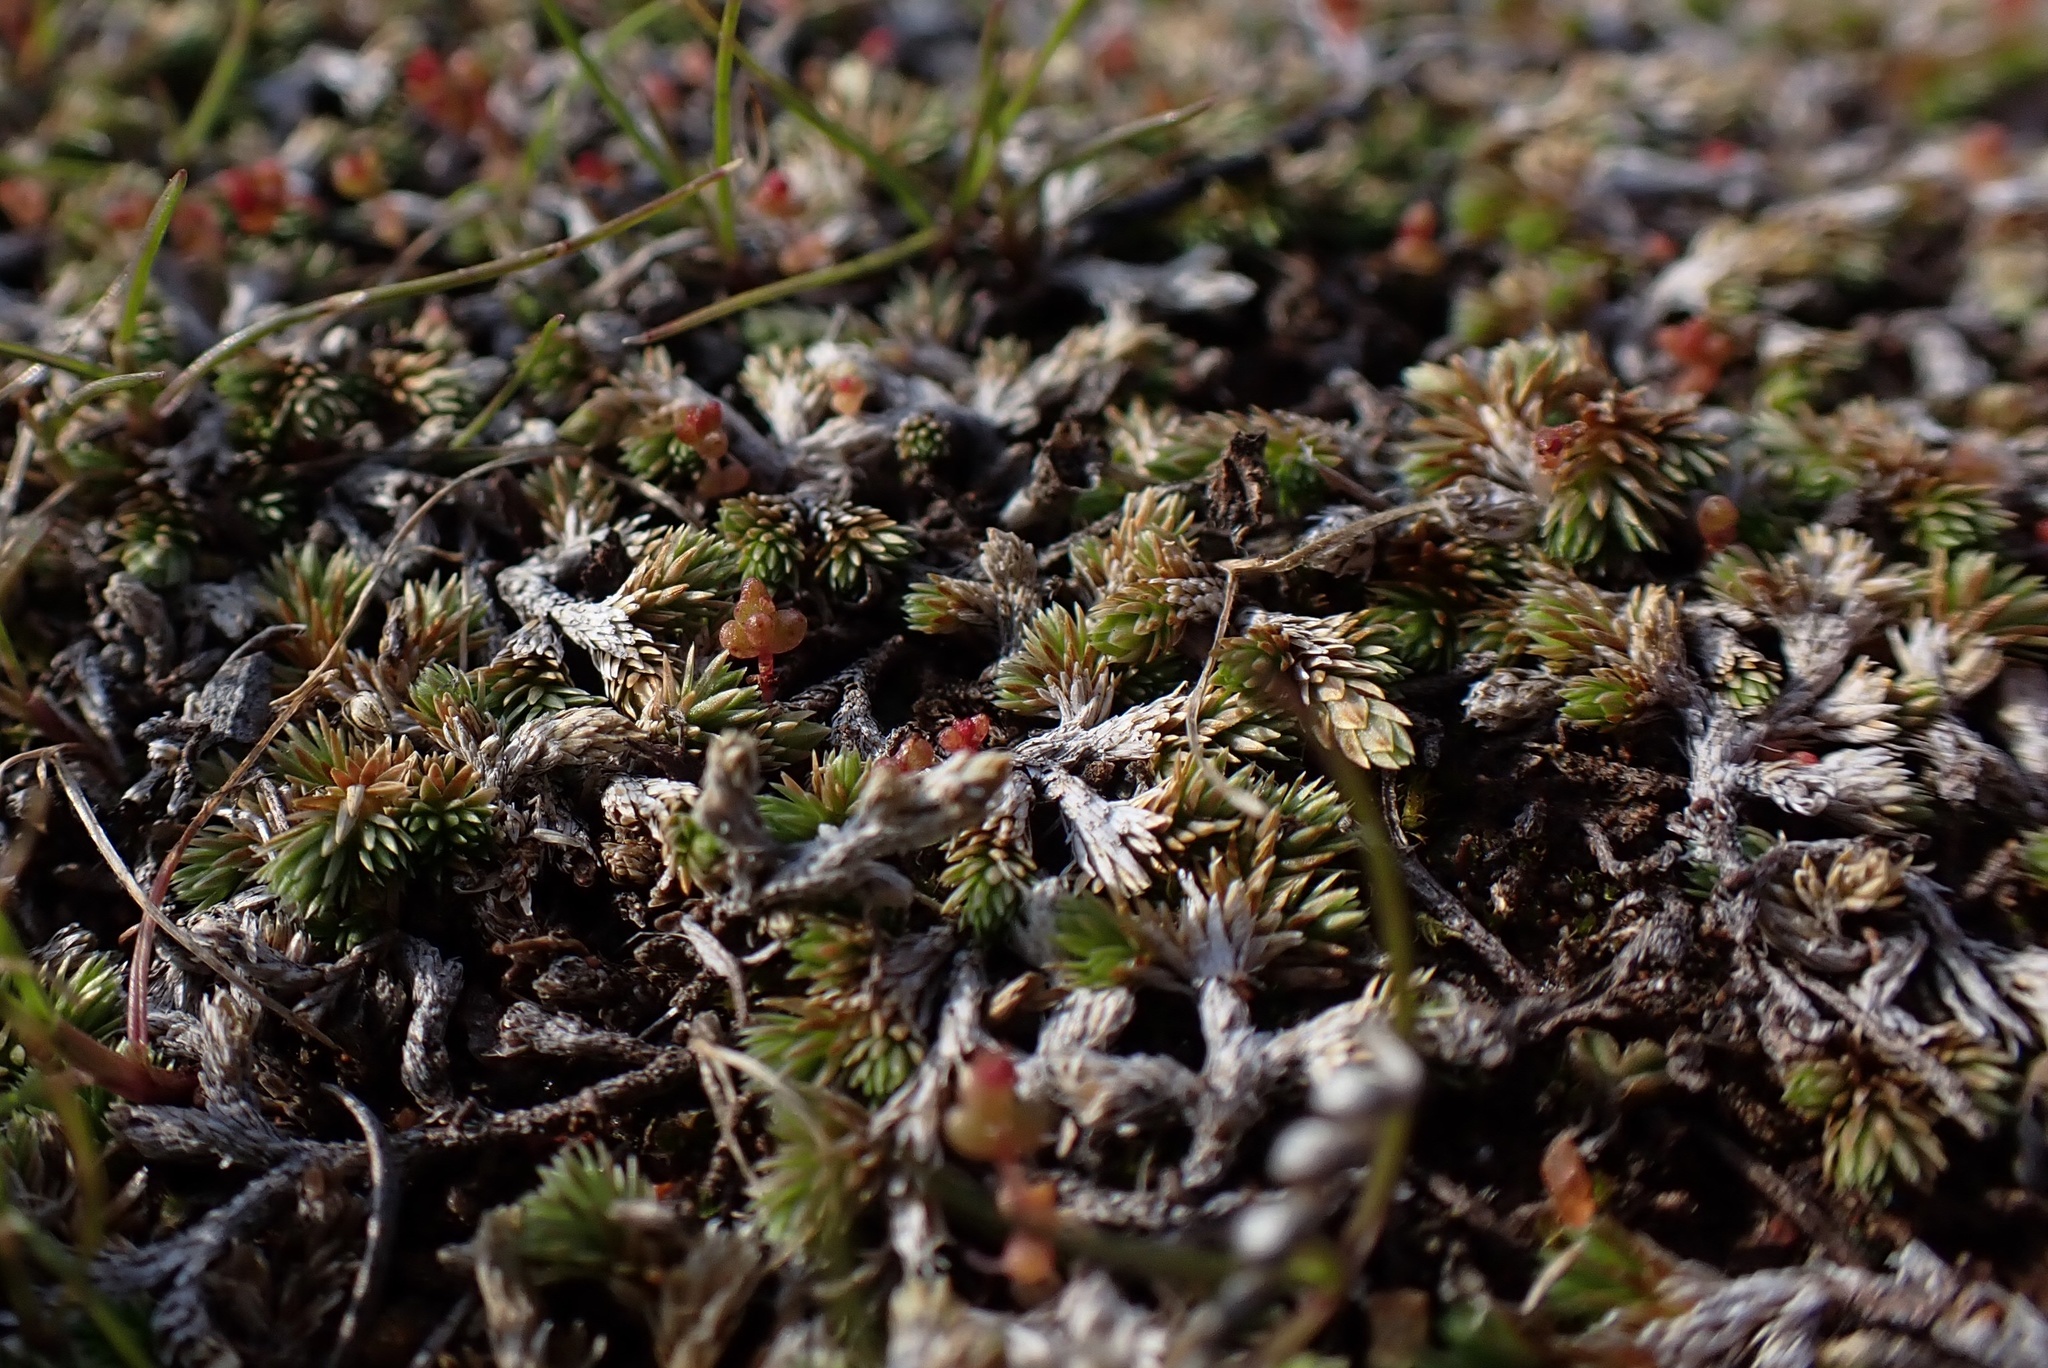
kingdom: Plantae
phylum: Tracheophyta
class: Lycopodiopsida
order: Selaginellales
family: Selaginellaceae
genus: Selaginella
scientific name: Selaginella cinerascens
